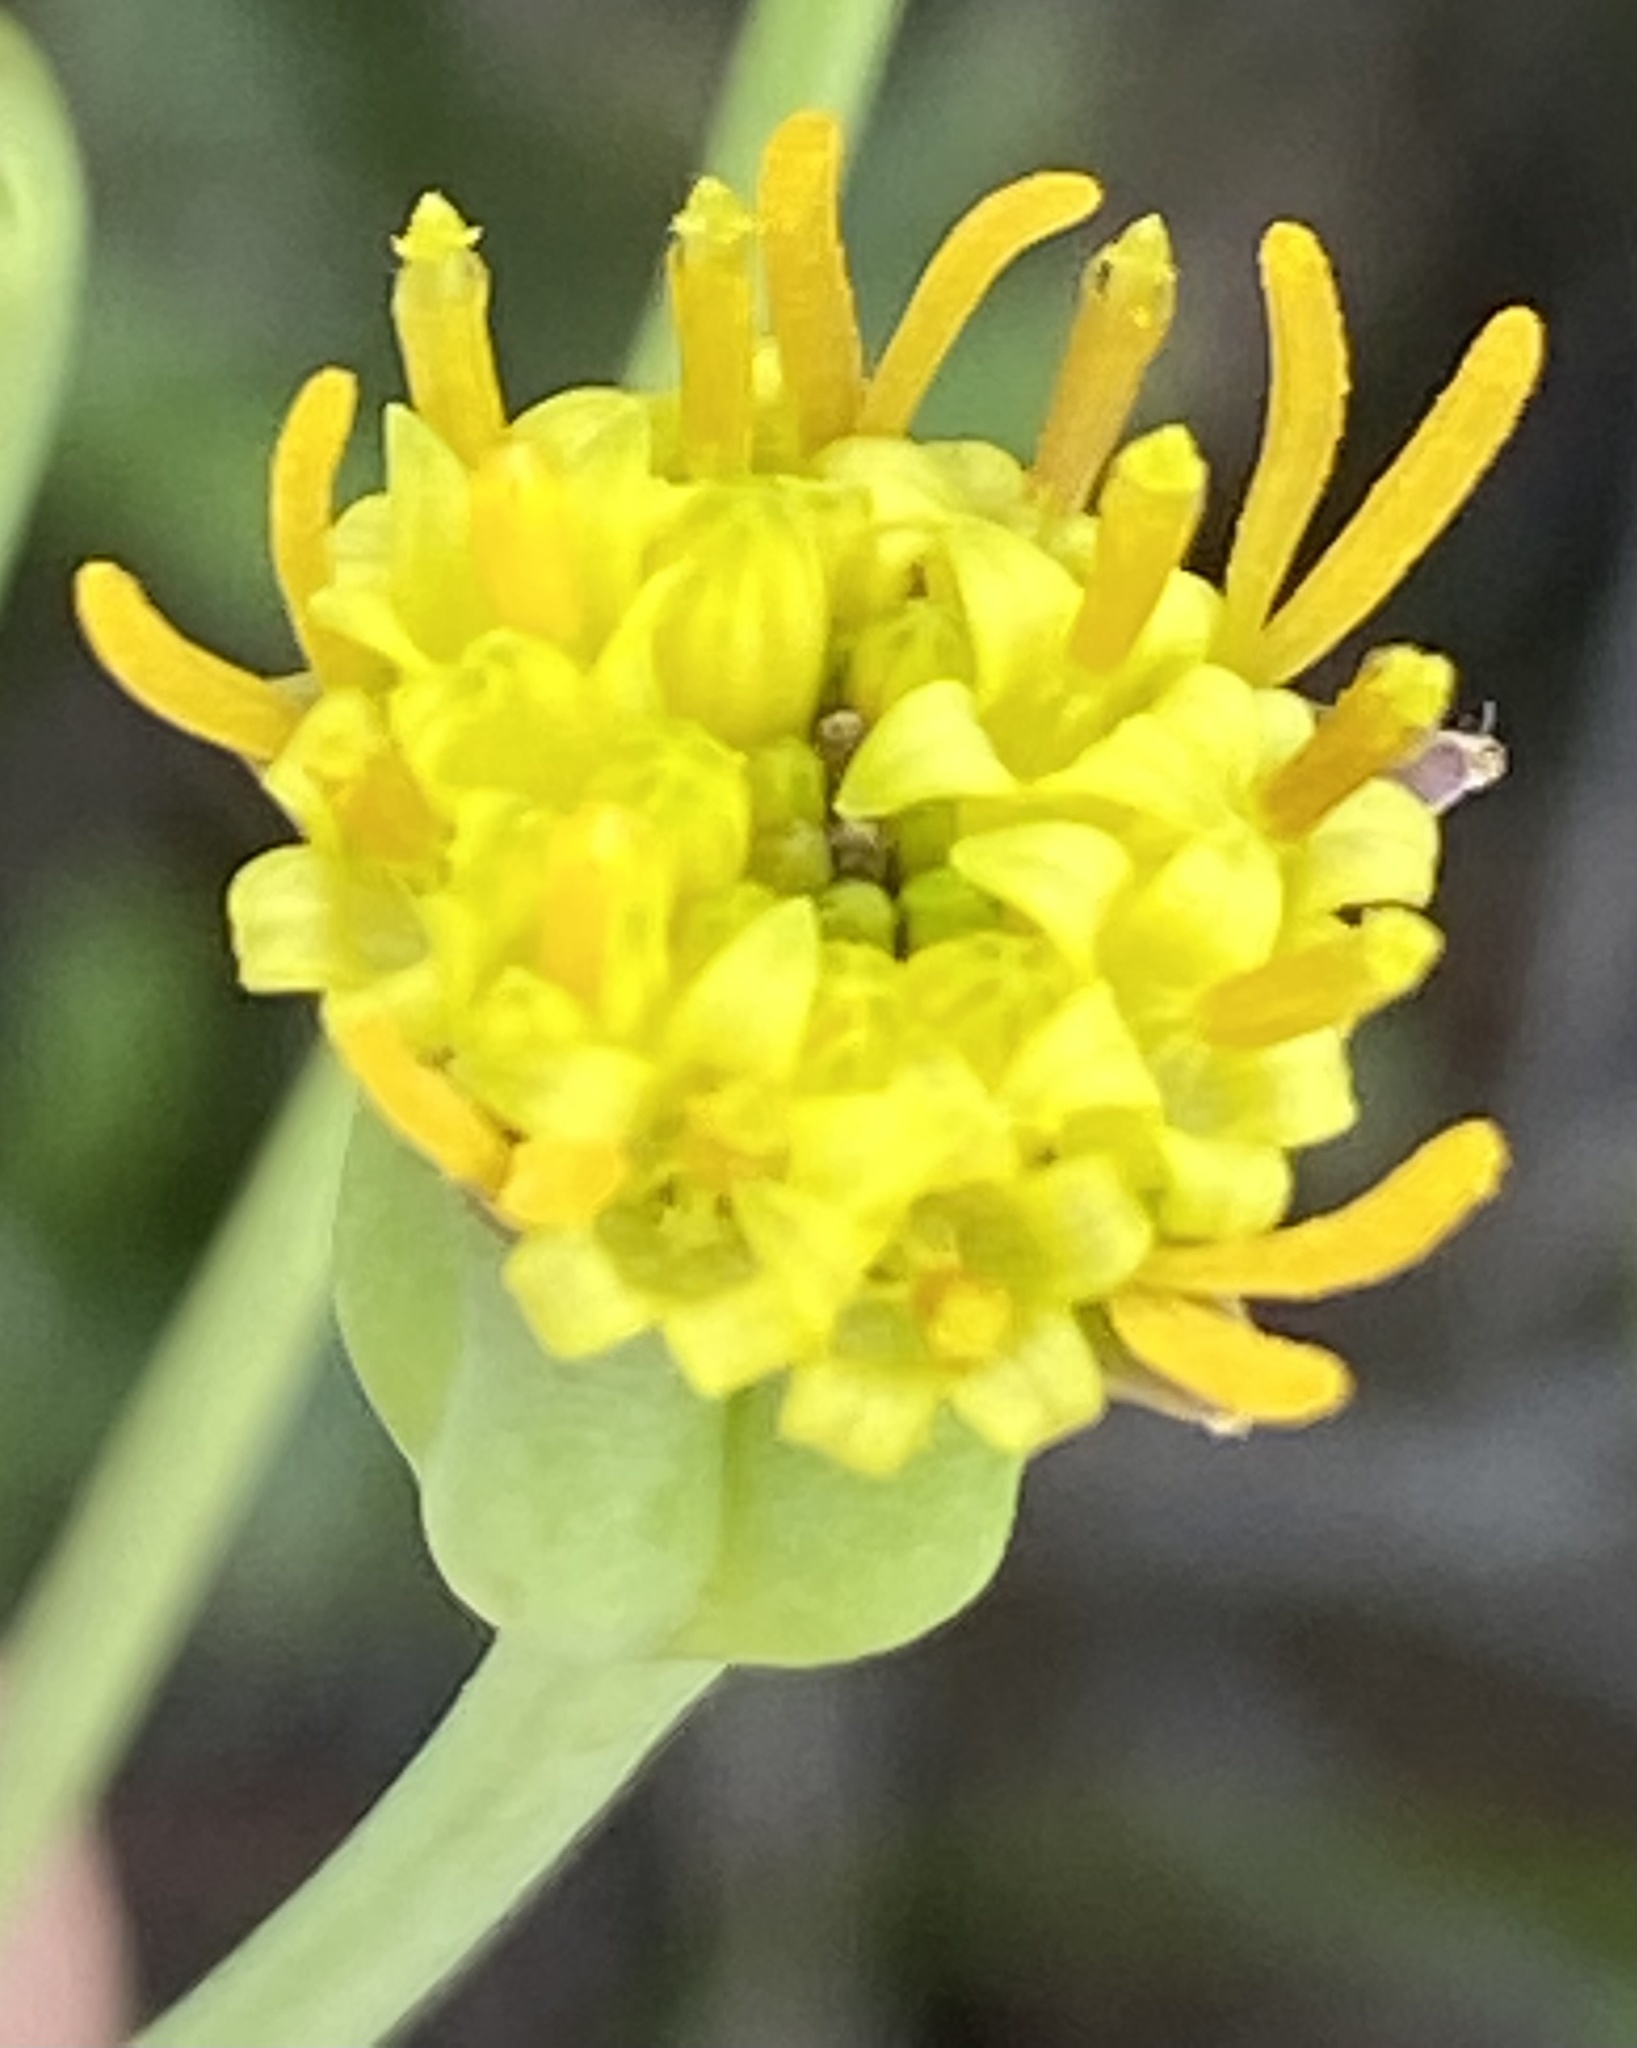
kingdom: Plantae
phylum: Tracheophyta
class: Magnoliopsida
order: Asterales
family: Asteraceae
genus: Othonna
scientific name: Othonna retrofracta
